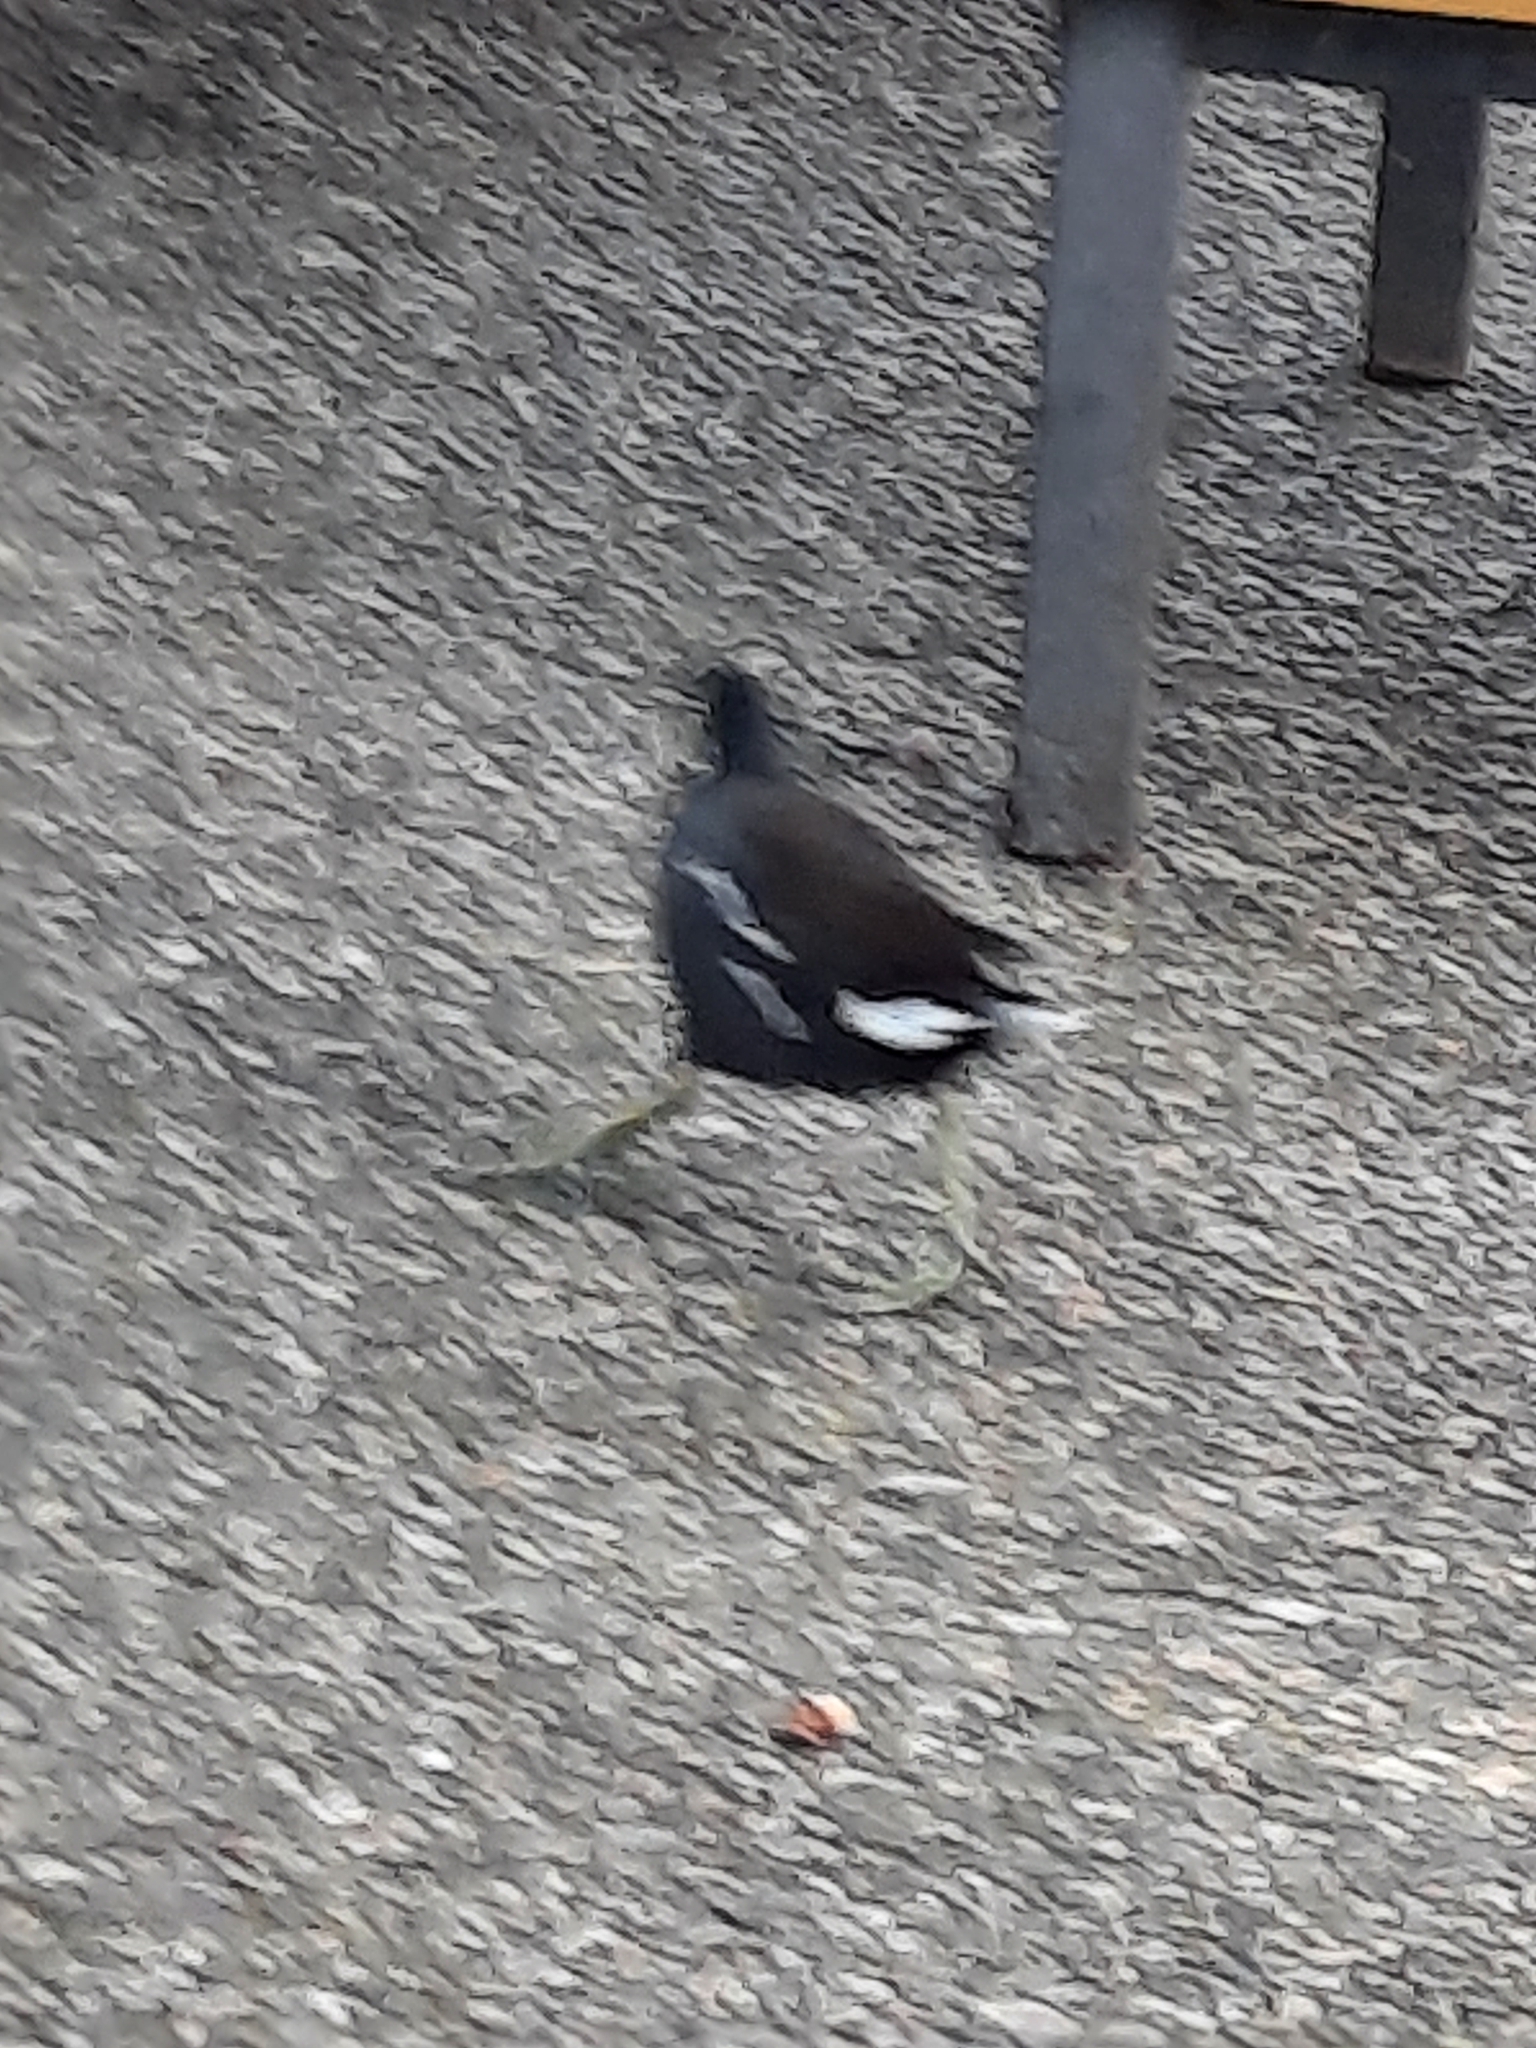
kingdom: Animalia
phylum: Chordata
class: Aves
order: Gruiformes
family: Rallidae
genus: Gallinula
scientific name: Gallinula chloropus
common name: Common moorhen
